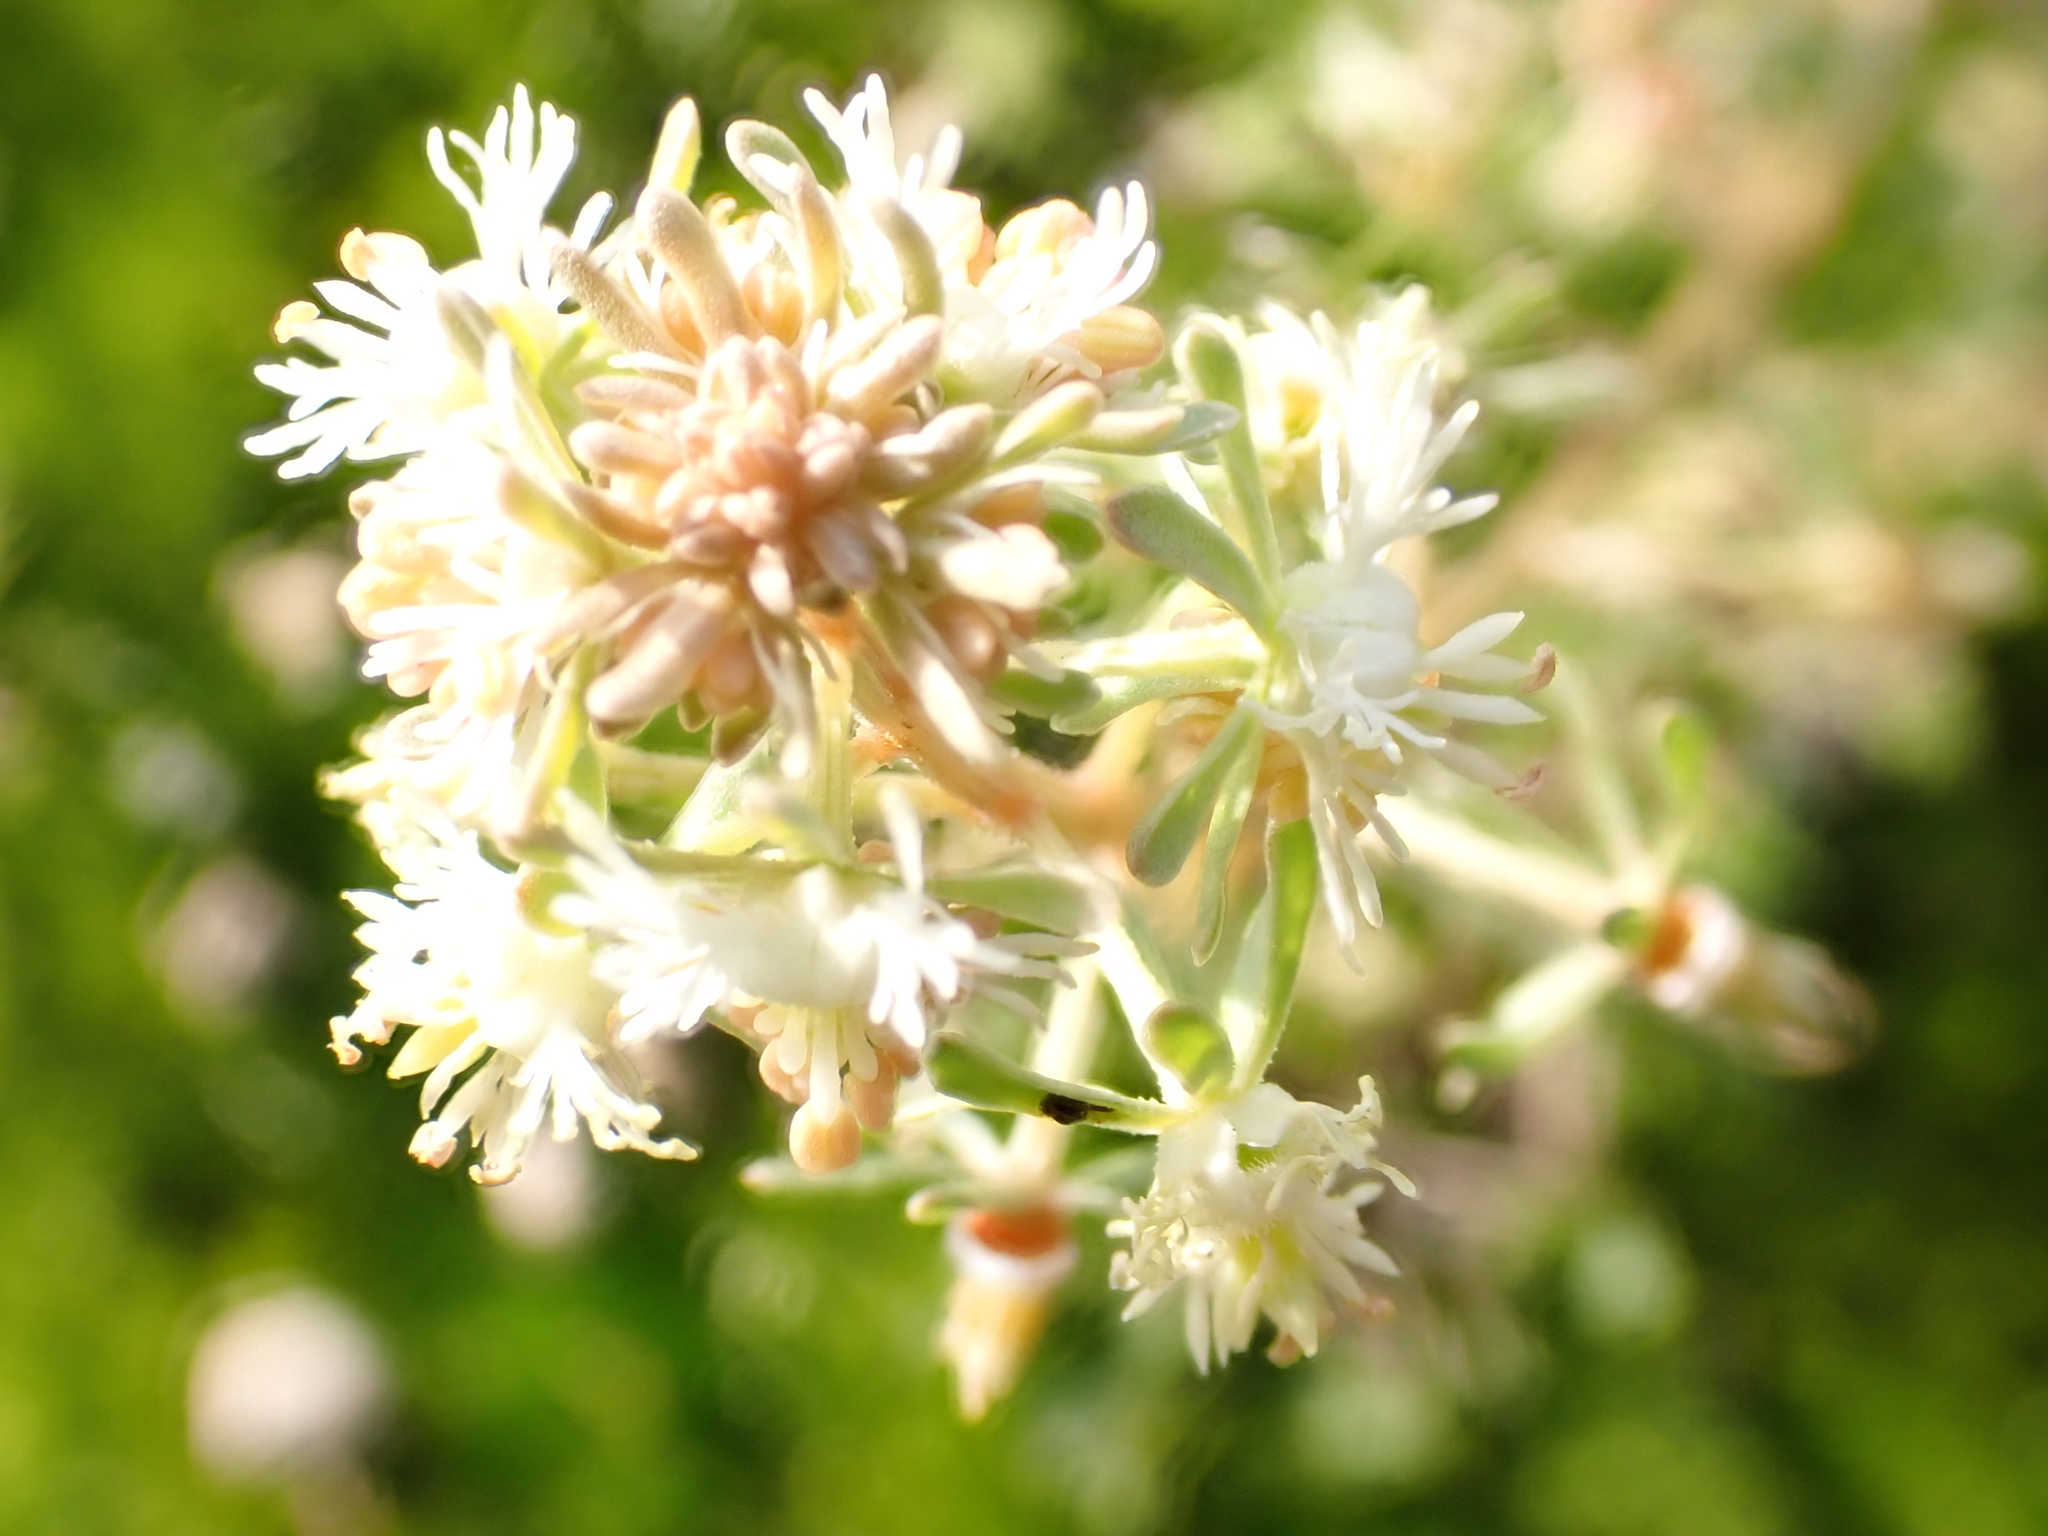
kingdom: Plantae
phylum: Tracheophyta
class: Magnoliopsida
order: Brassicales
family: Resedaceae
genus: Reseda
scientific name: Reseda phyteuma
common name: Corn mignonette
